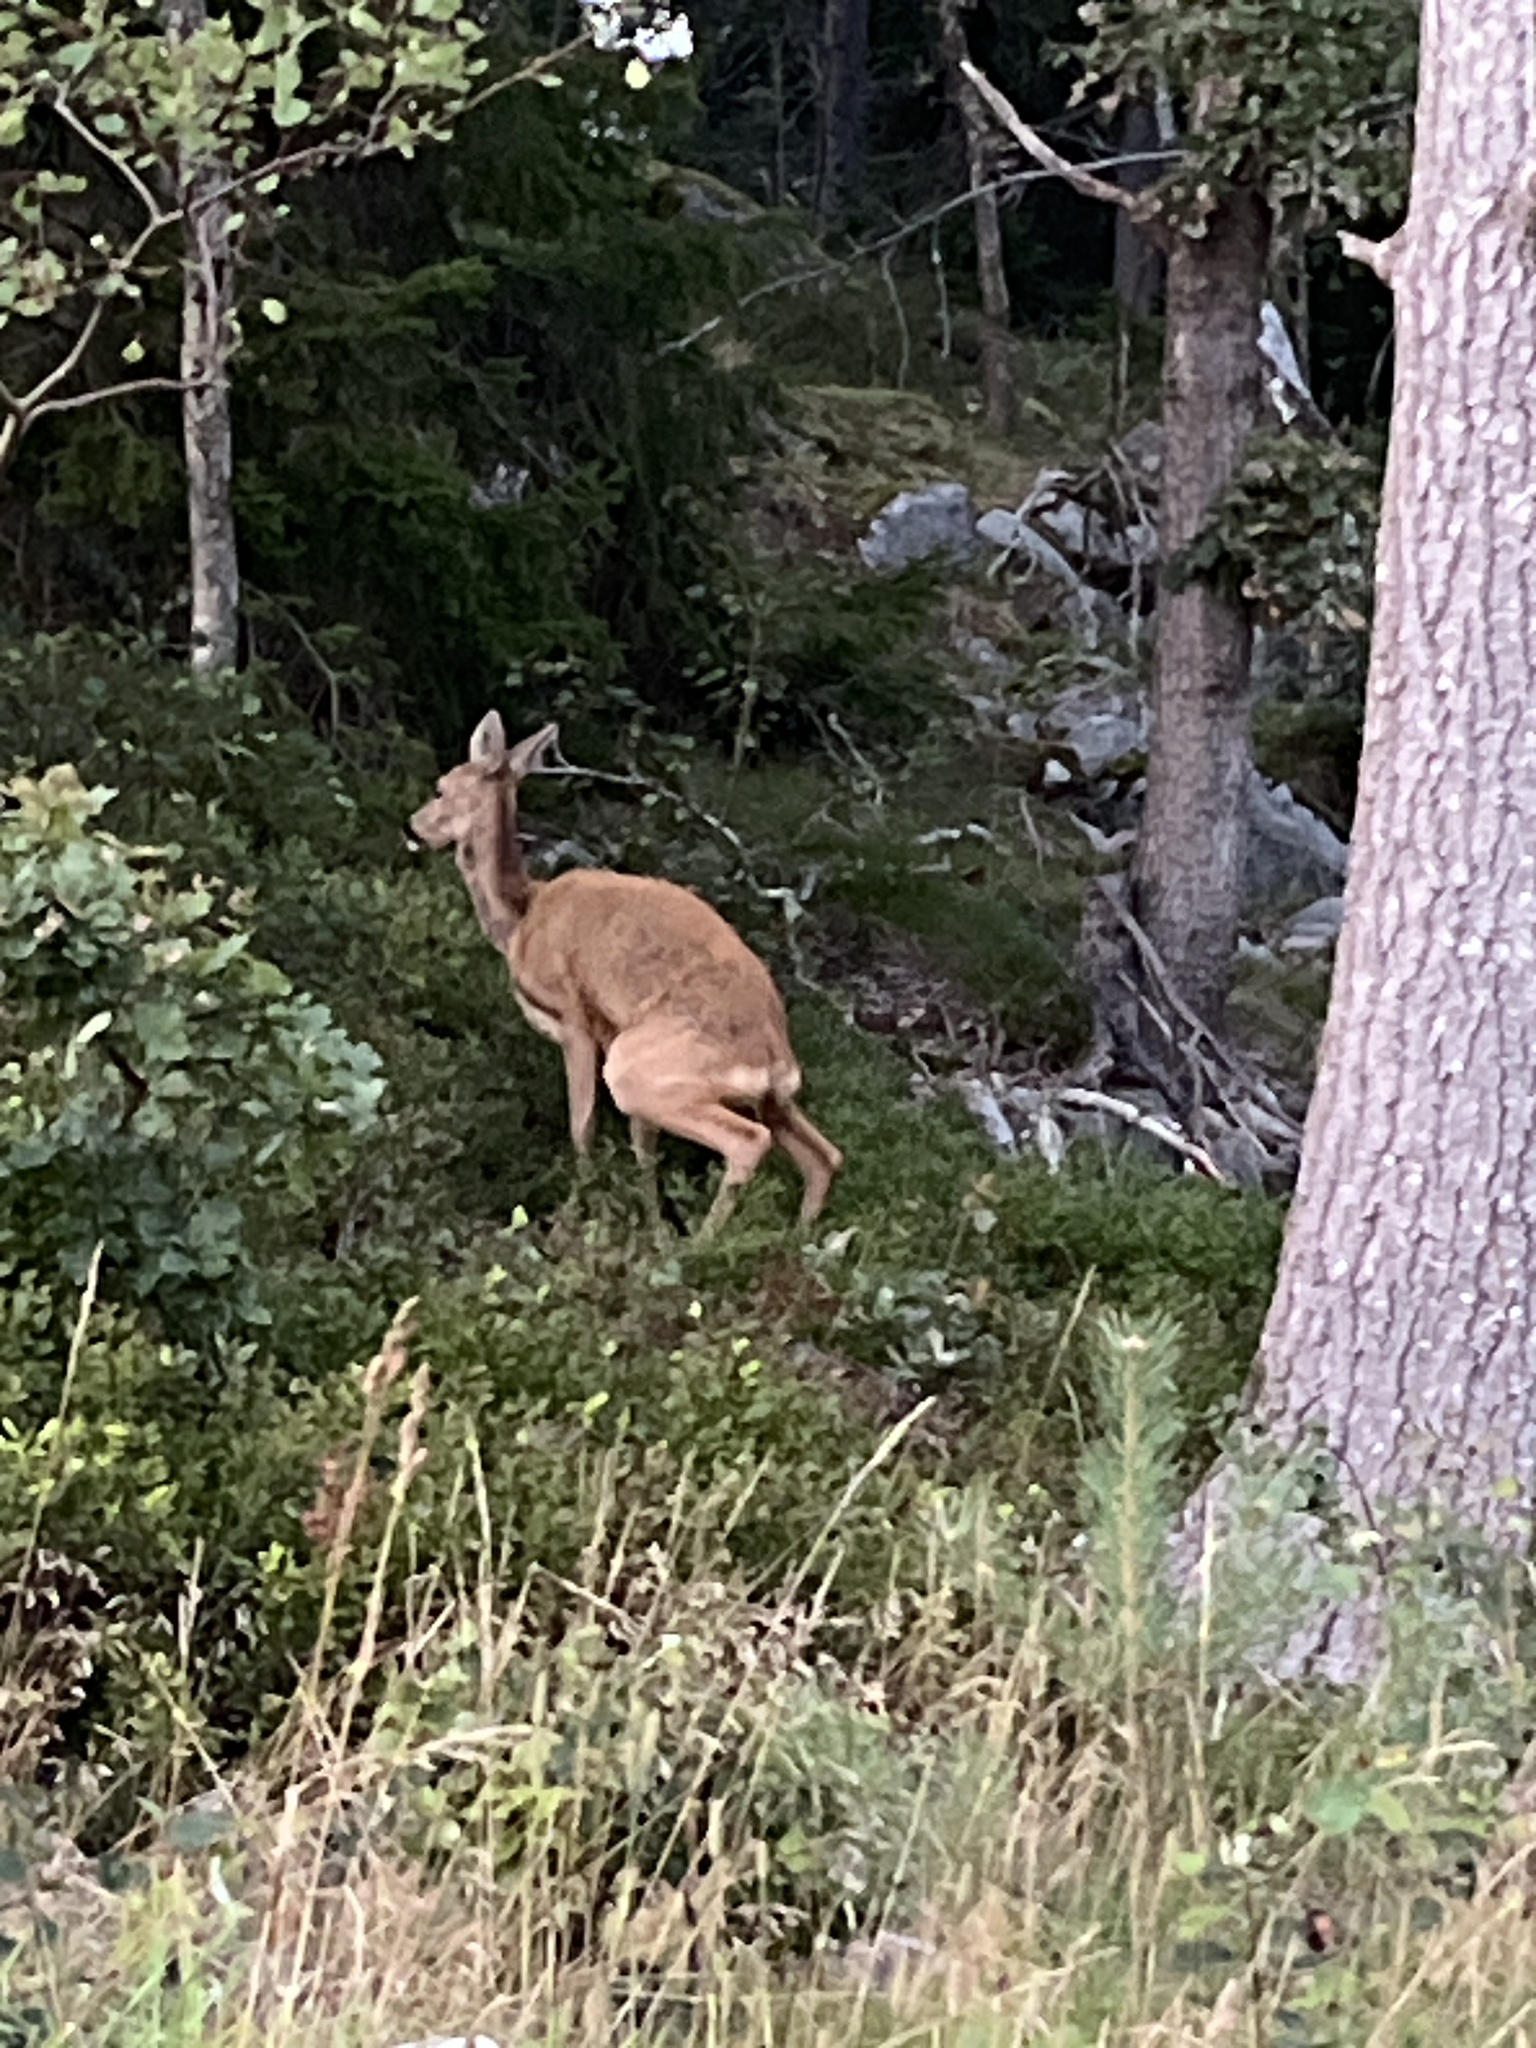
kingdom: Animalia
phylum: Chordata
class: Mammalia
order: Artiodactyla
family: Cervidae
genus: Capreolus
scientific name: Capreolus capreolus
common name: Western roe deer
